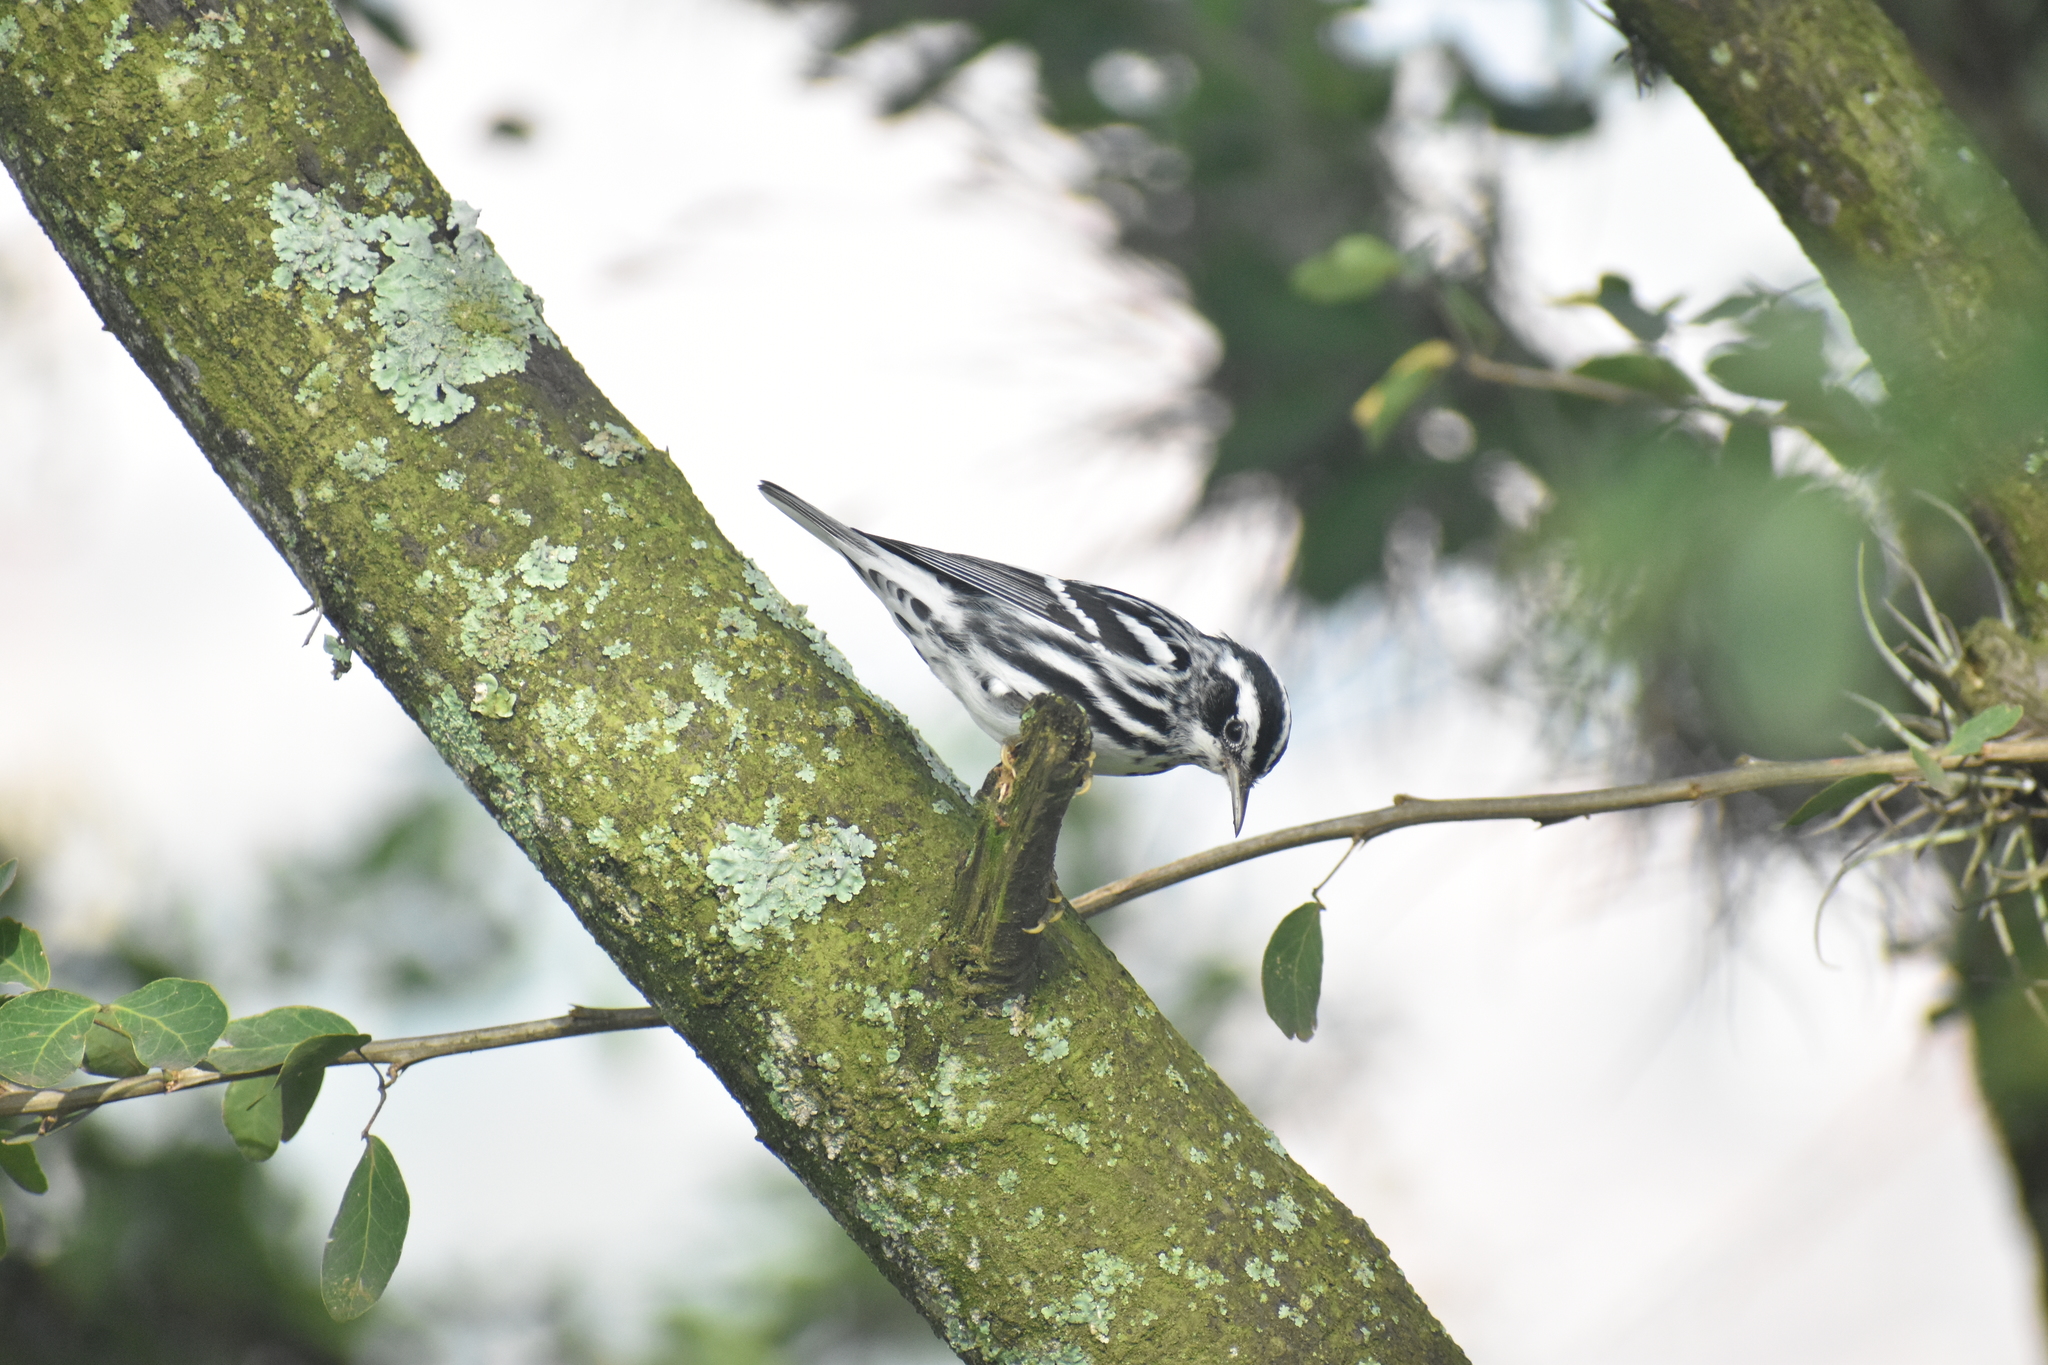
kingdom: Animalia
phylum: Chordata
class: Aves
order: Passeriformes
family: Parulidae
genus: Mniotilta
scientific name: Mniotilta varia
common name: Black-and-white warbler
